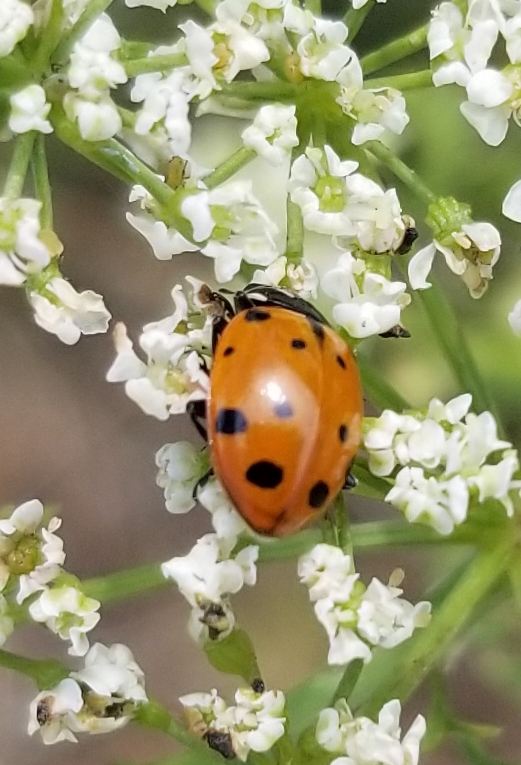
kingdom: Animalia
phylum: Arthropoda
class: Insecta
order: Coleoptera
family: Coccinellidae
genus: Hippodamia
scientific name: Hippodamia convergens
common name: Convergent lady beetle
